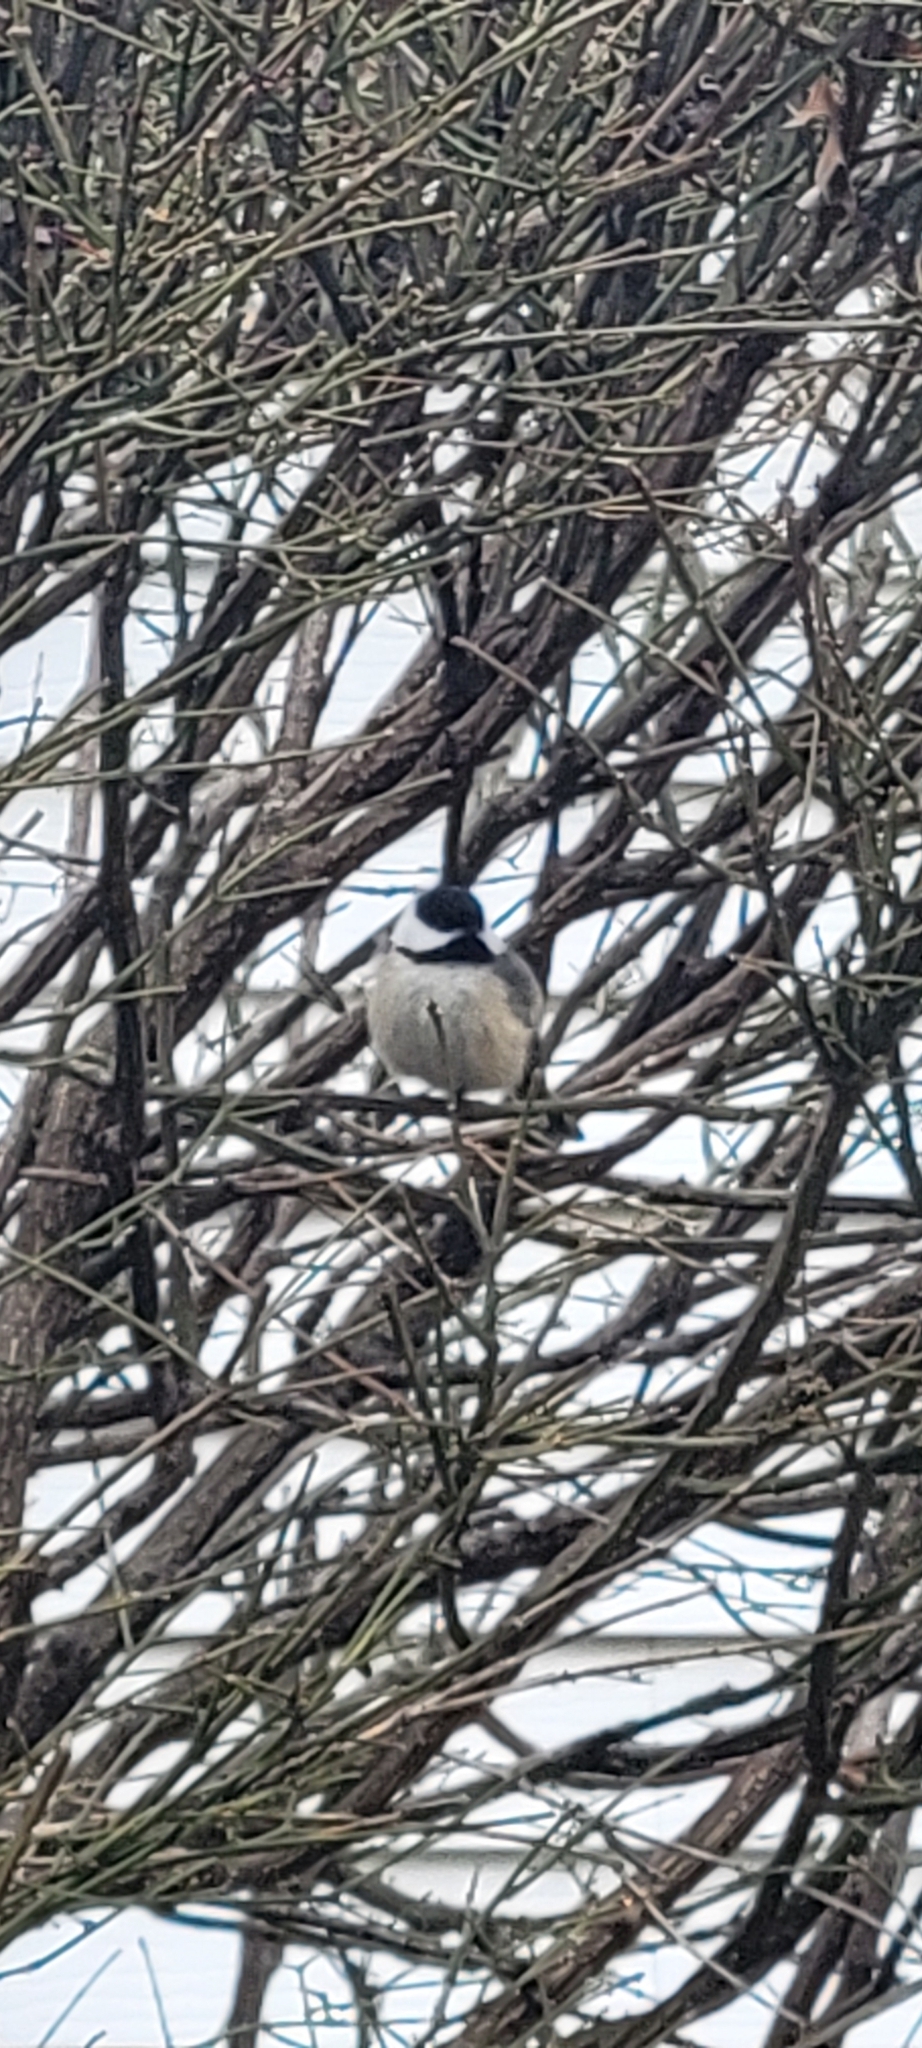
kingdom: Animalia
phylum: Chordata
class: Aves
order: Passeriformes
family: Paridae
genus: Poecile
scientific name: Poecile atricapillus
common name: Black-capped chickadee
